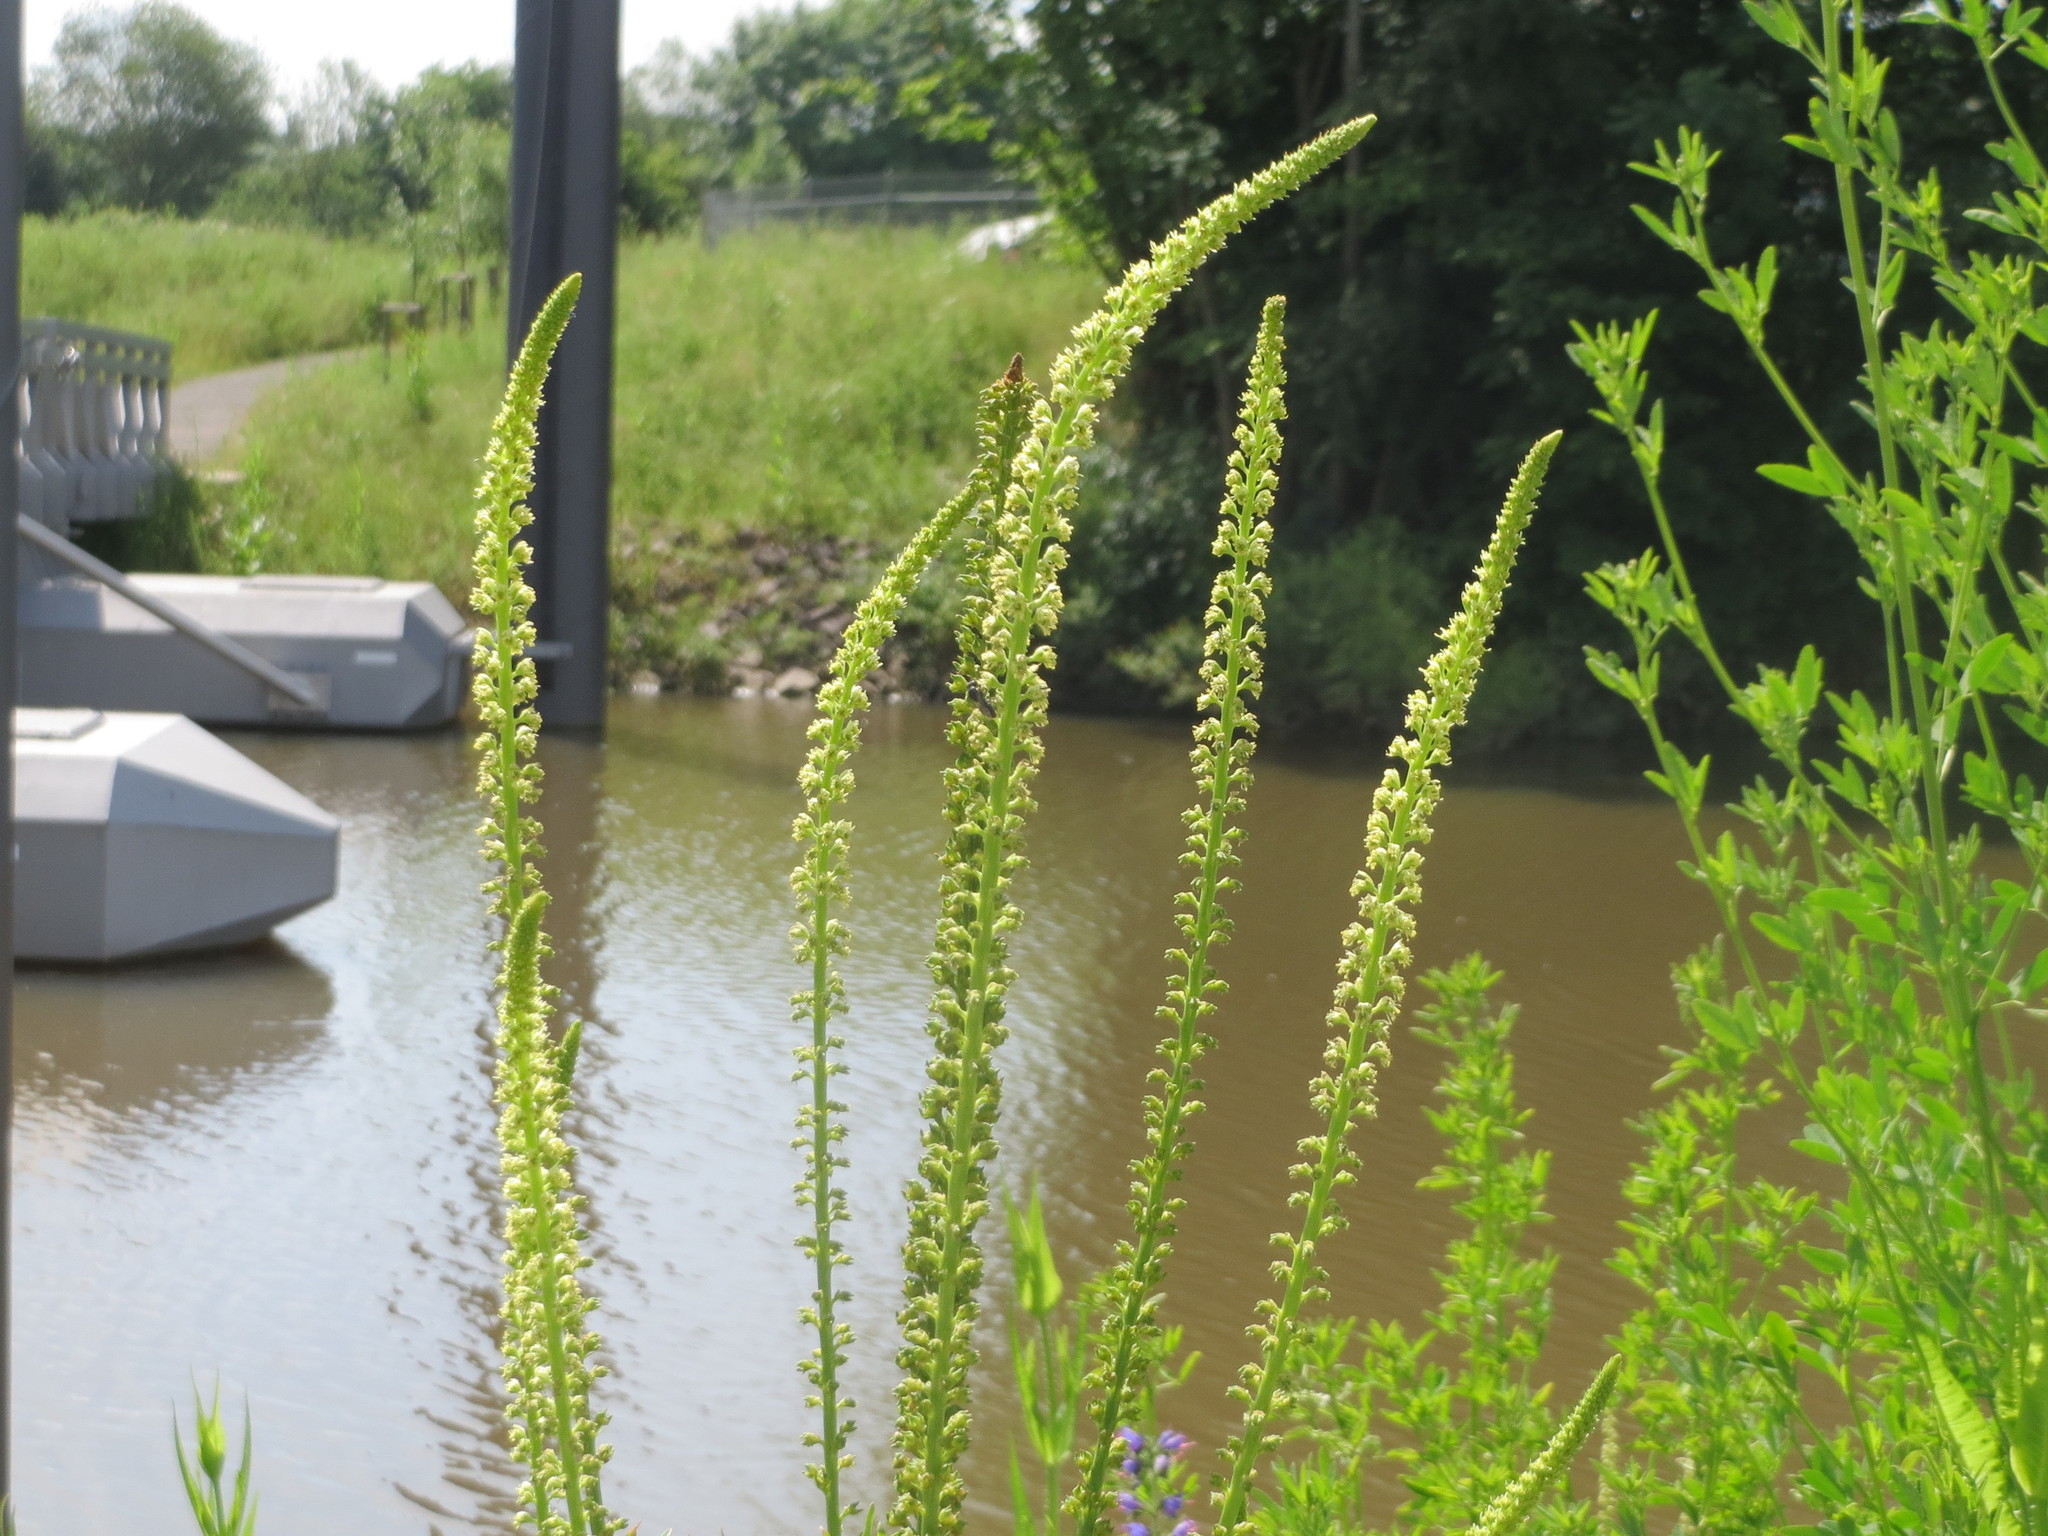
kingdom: Plantae
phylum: Tracheophyta
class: Magnoliopsida
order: Brassicales
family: Resedaceae
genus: Reseda
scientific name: Reseda luteola
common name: Weld
